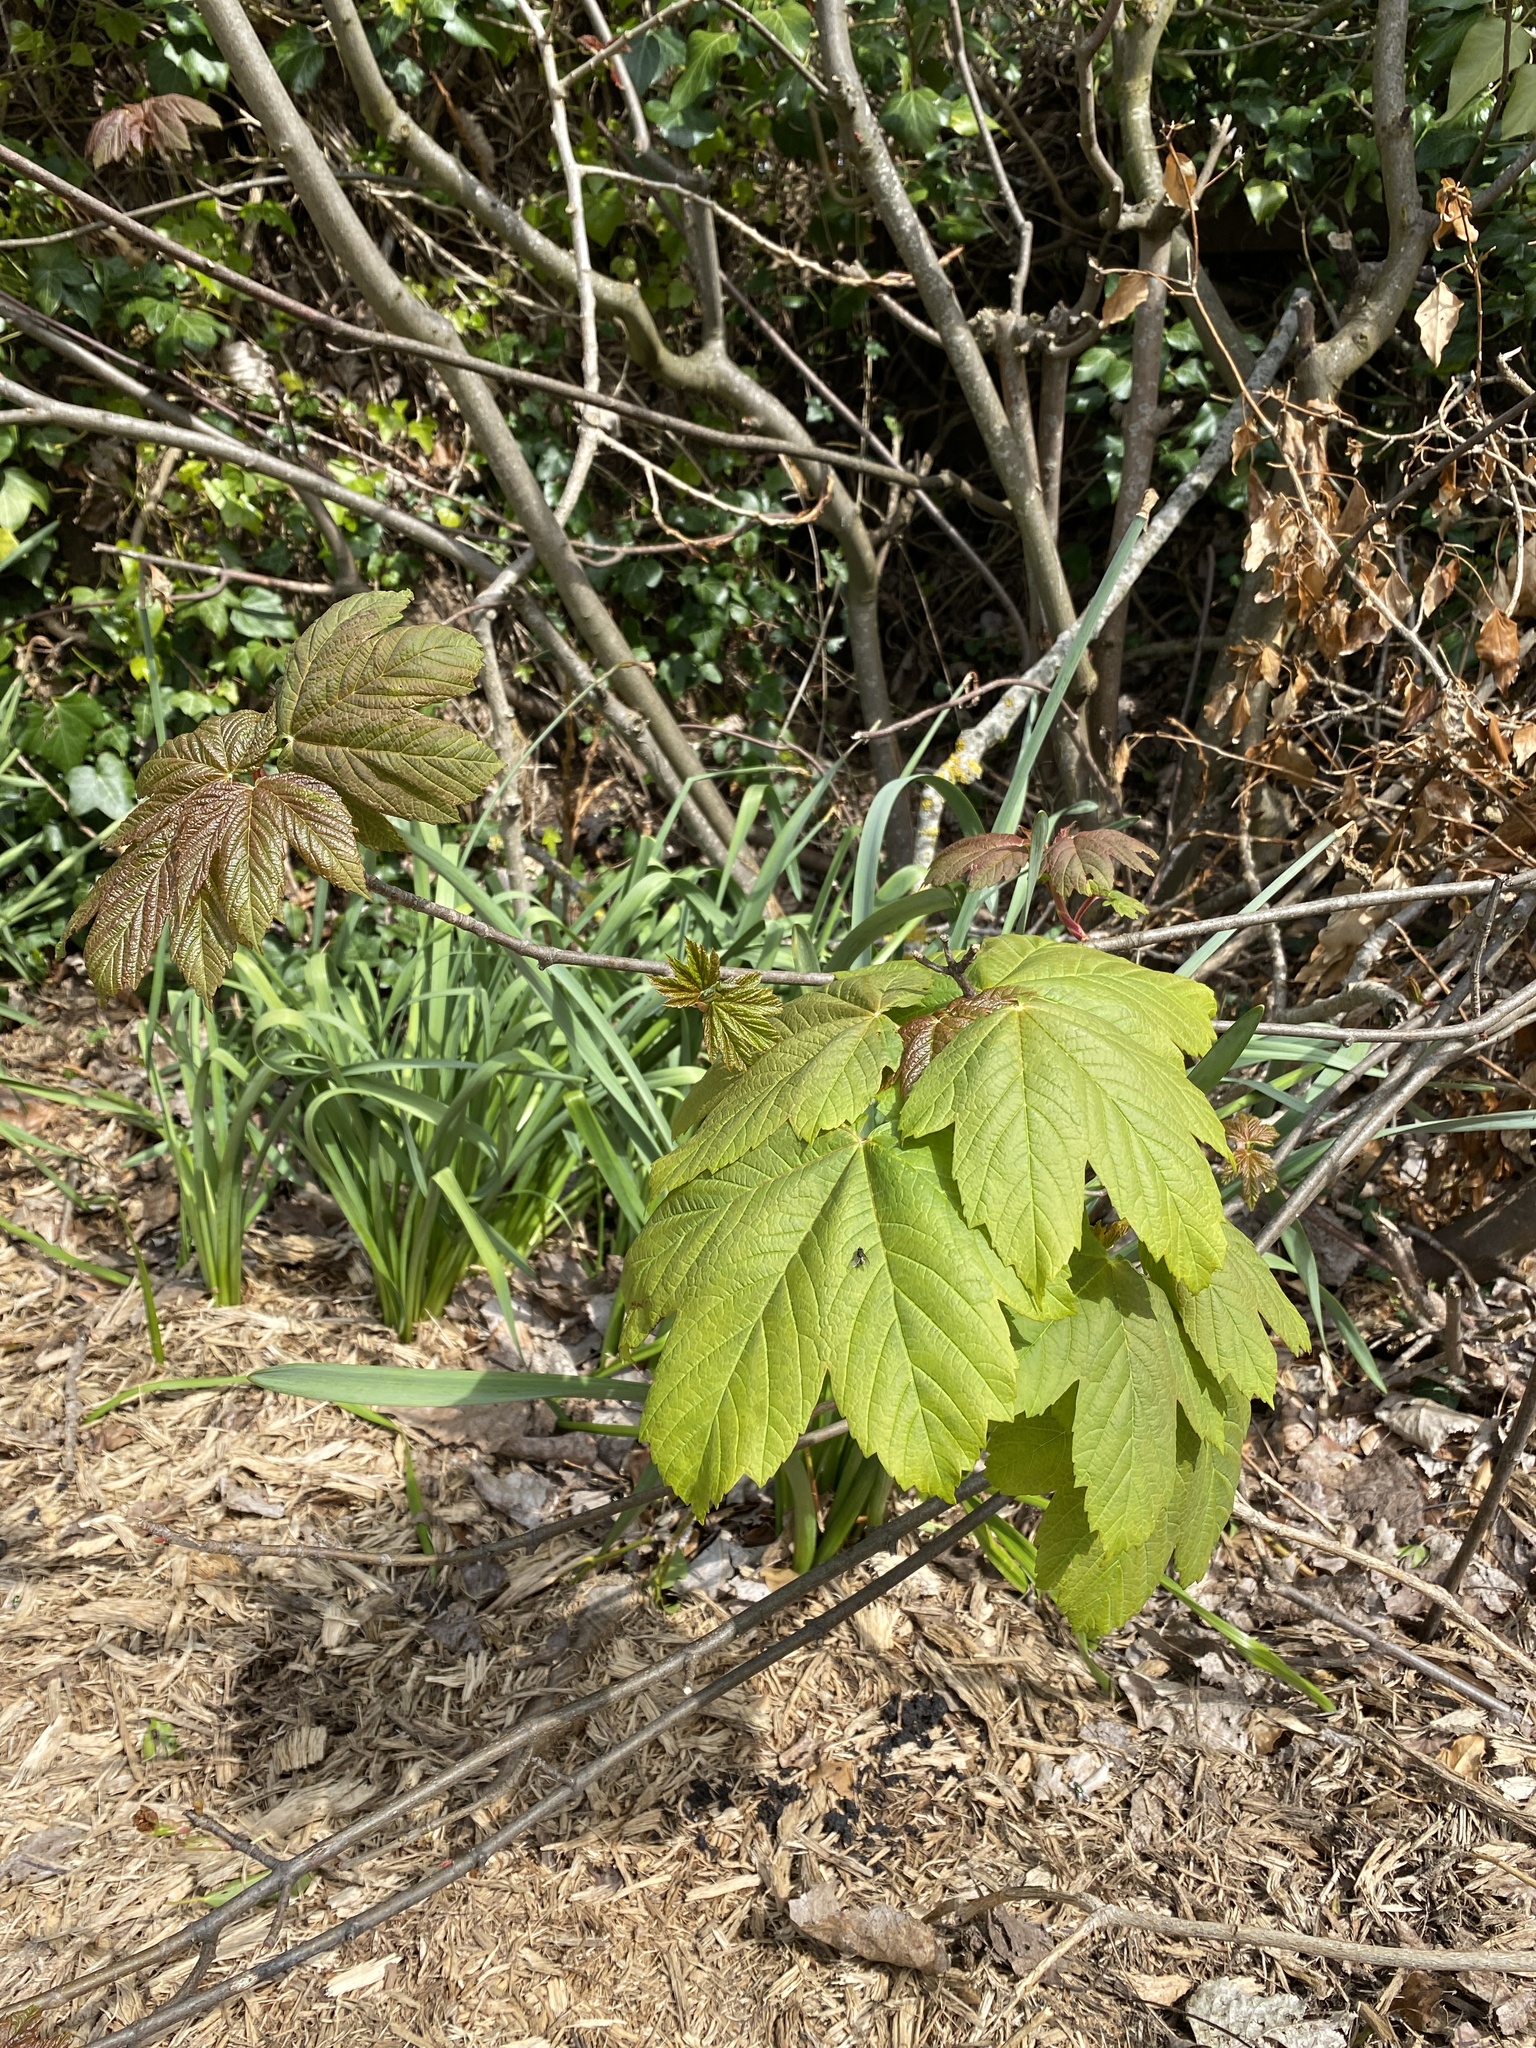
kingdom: Plantae
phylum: Tracheophyta
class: Magnoliopsida
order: Sapindales
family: Sapindaceae
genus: Acer
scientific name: Acer pseudoplatanus
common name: Sycamore
